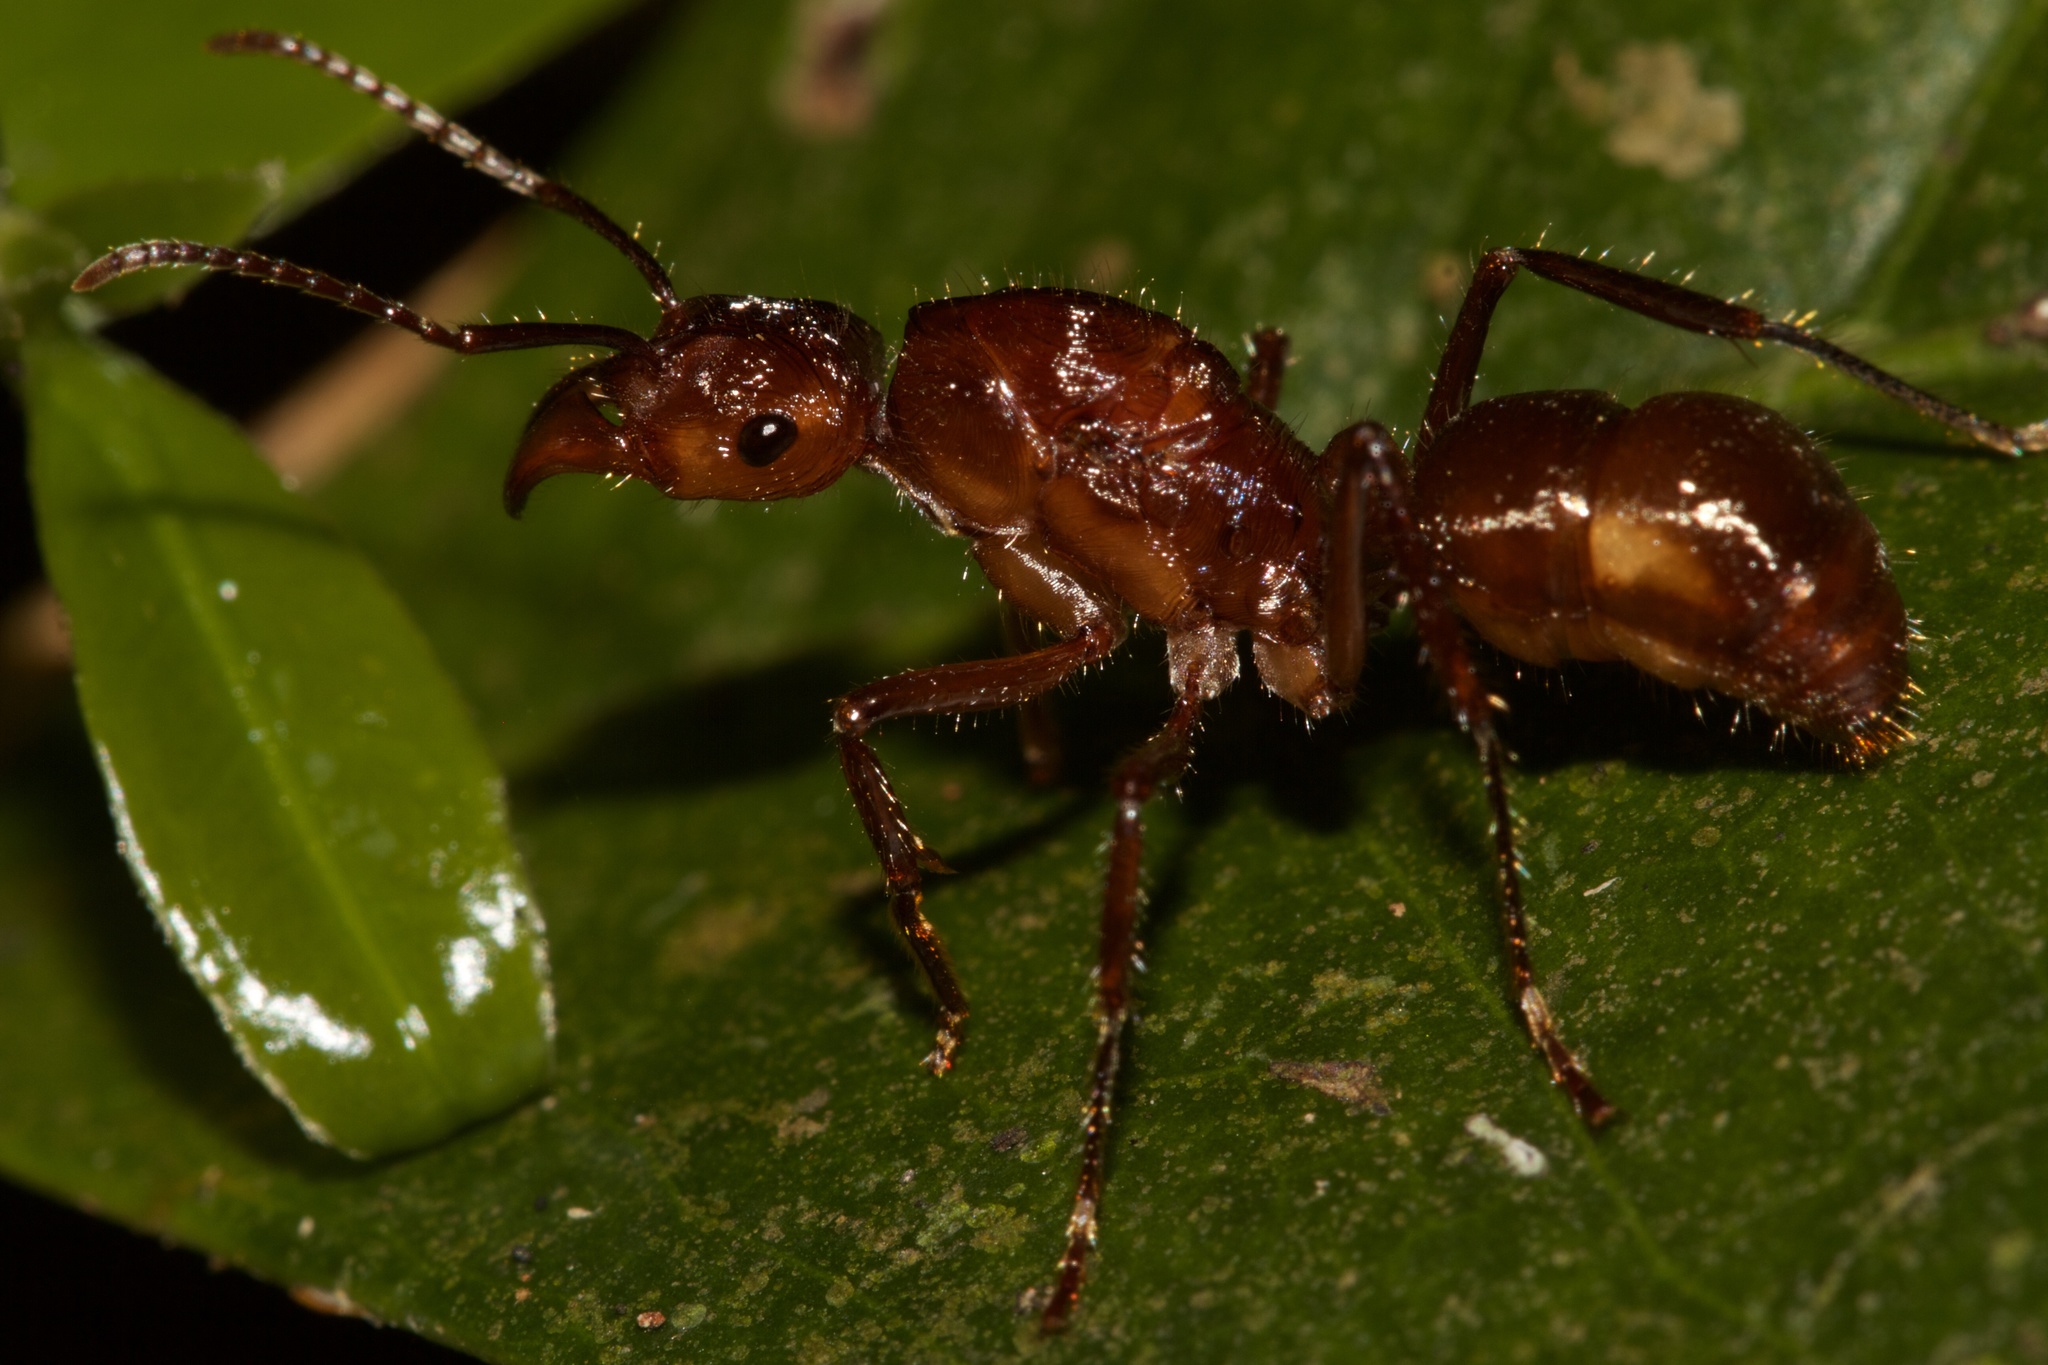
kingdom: Animalia
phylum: Arthropoda
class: Insecta
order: Hymenoptera
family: Formicidae
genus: Ectatomma
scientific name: Ectatomma tuberculatum
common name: Ant
